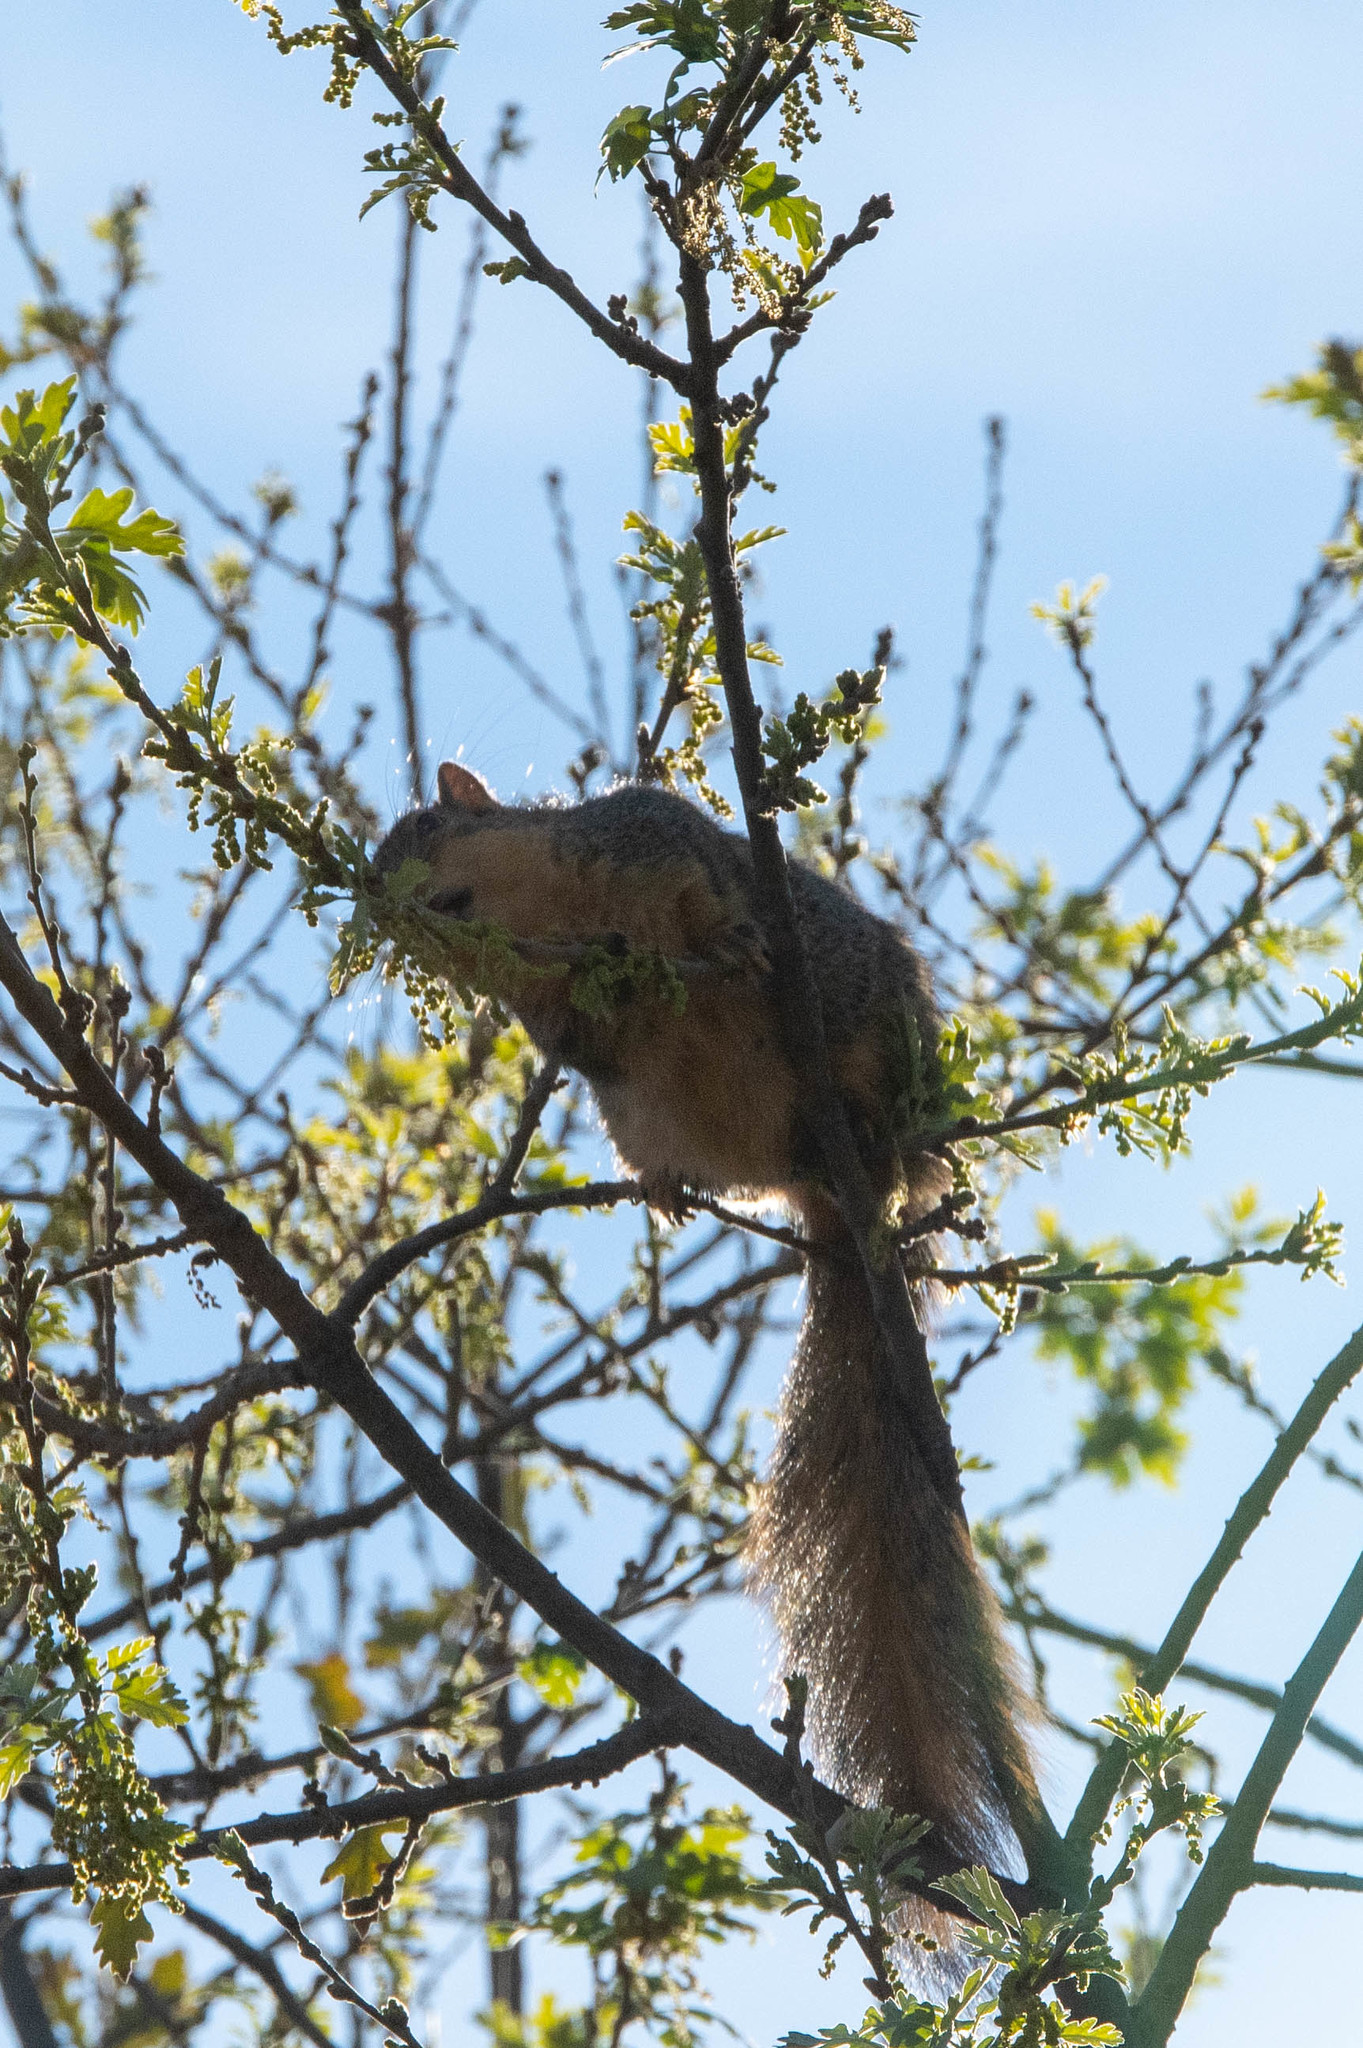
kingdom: Animalia
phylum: Chordata
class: Mammalia
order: Rodentia
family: Sciuridae
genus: Sciurus
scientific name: Sciurus niger
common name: Fox squirrel
